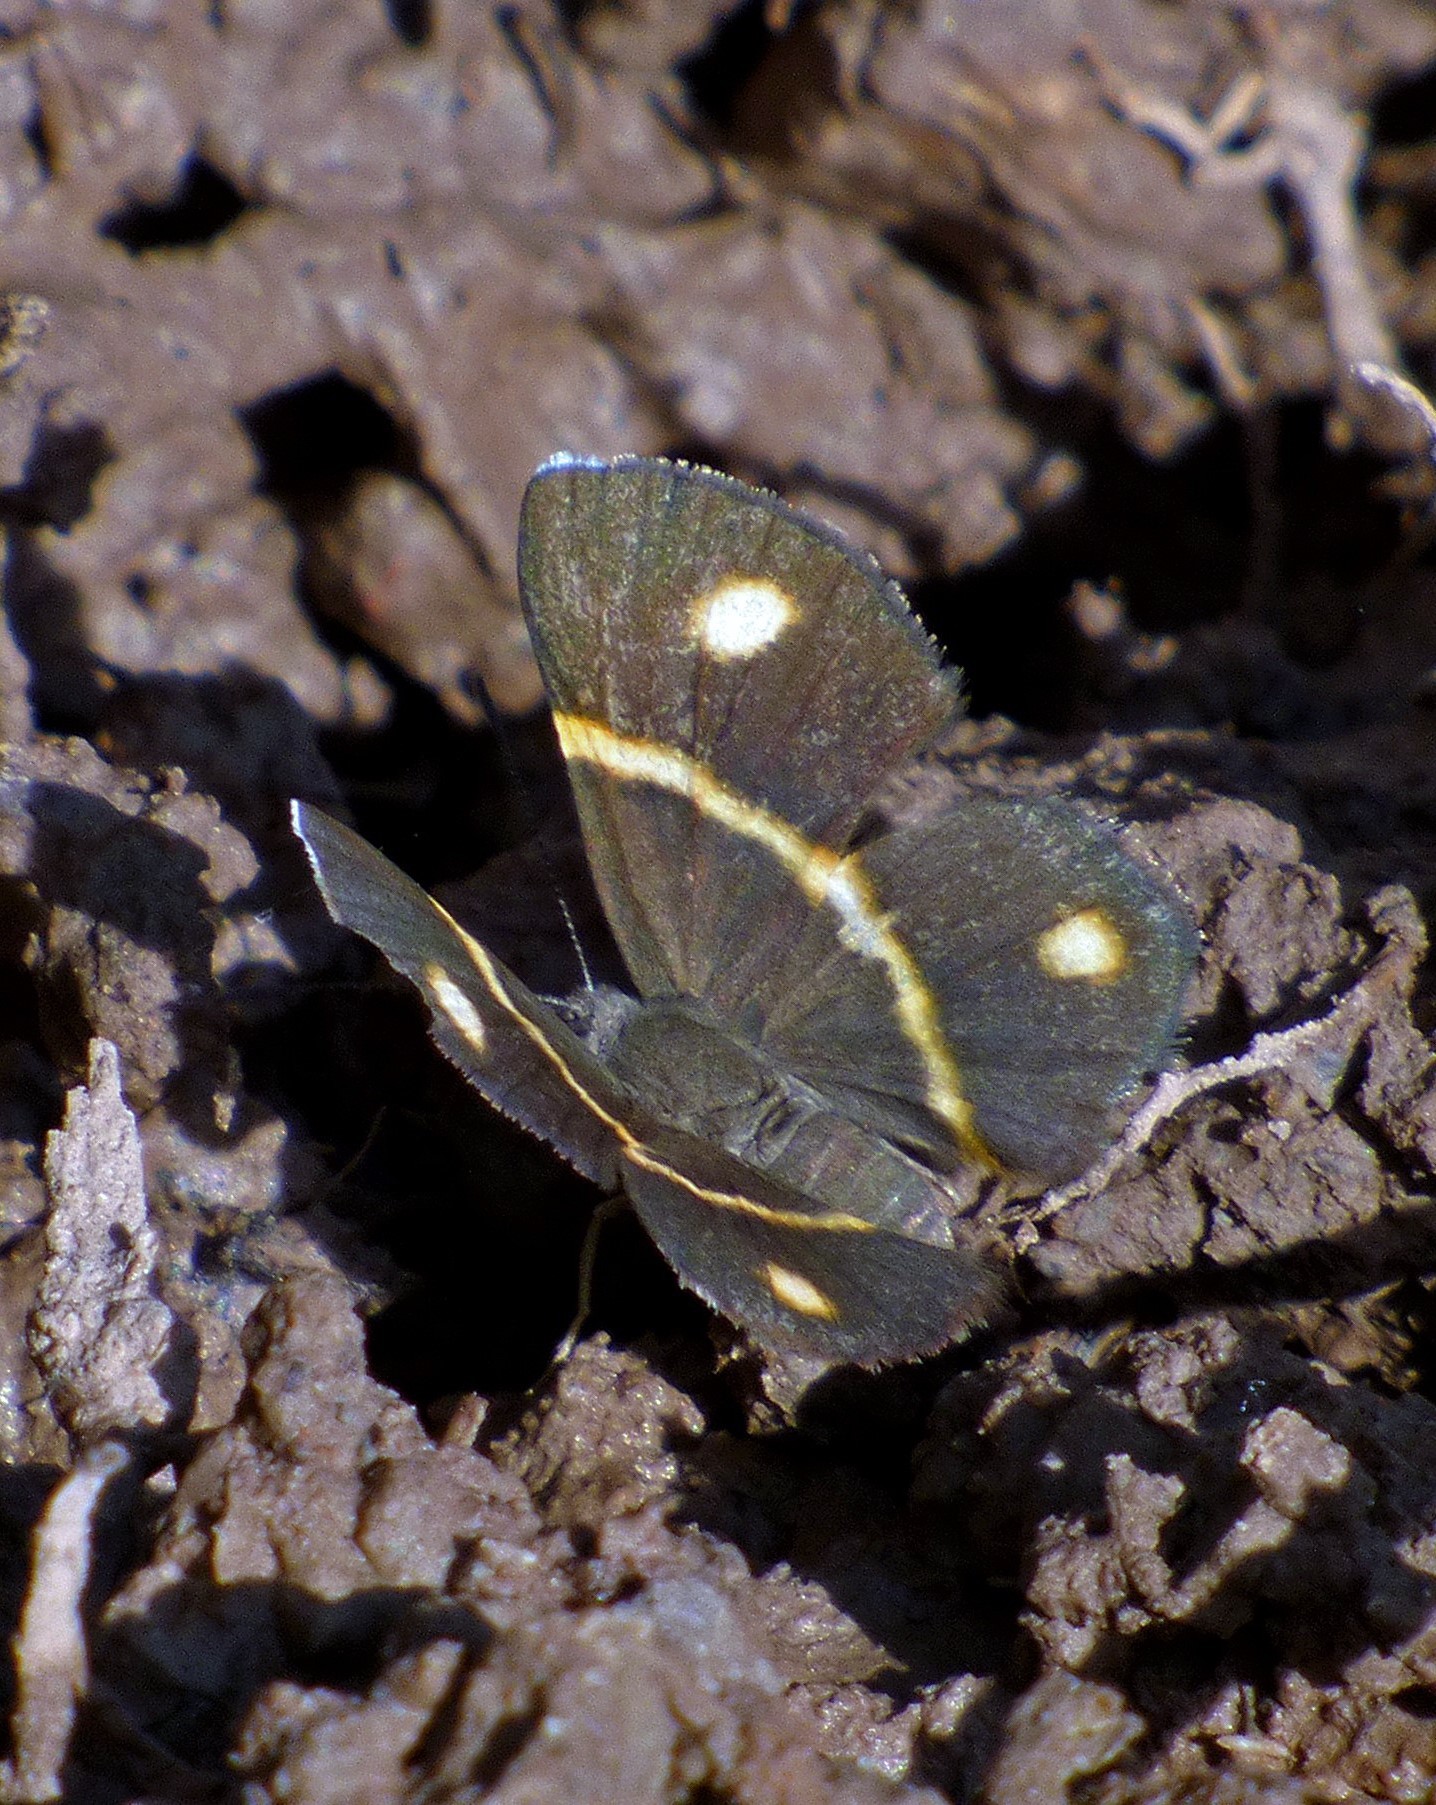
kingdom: Animalia
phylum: Arthropoda
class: Insecta
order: Lepidoptera
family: Riodinidae
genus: Parcella
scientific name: Parcella amarynthina
